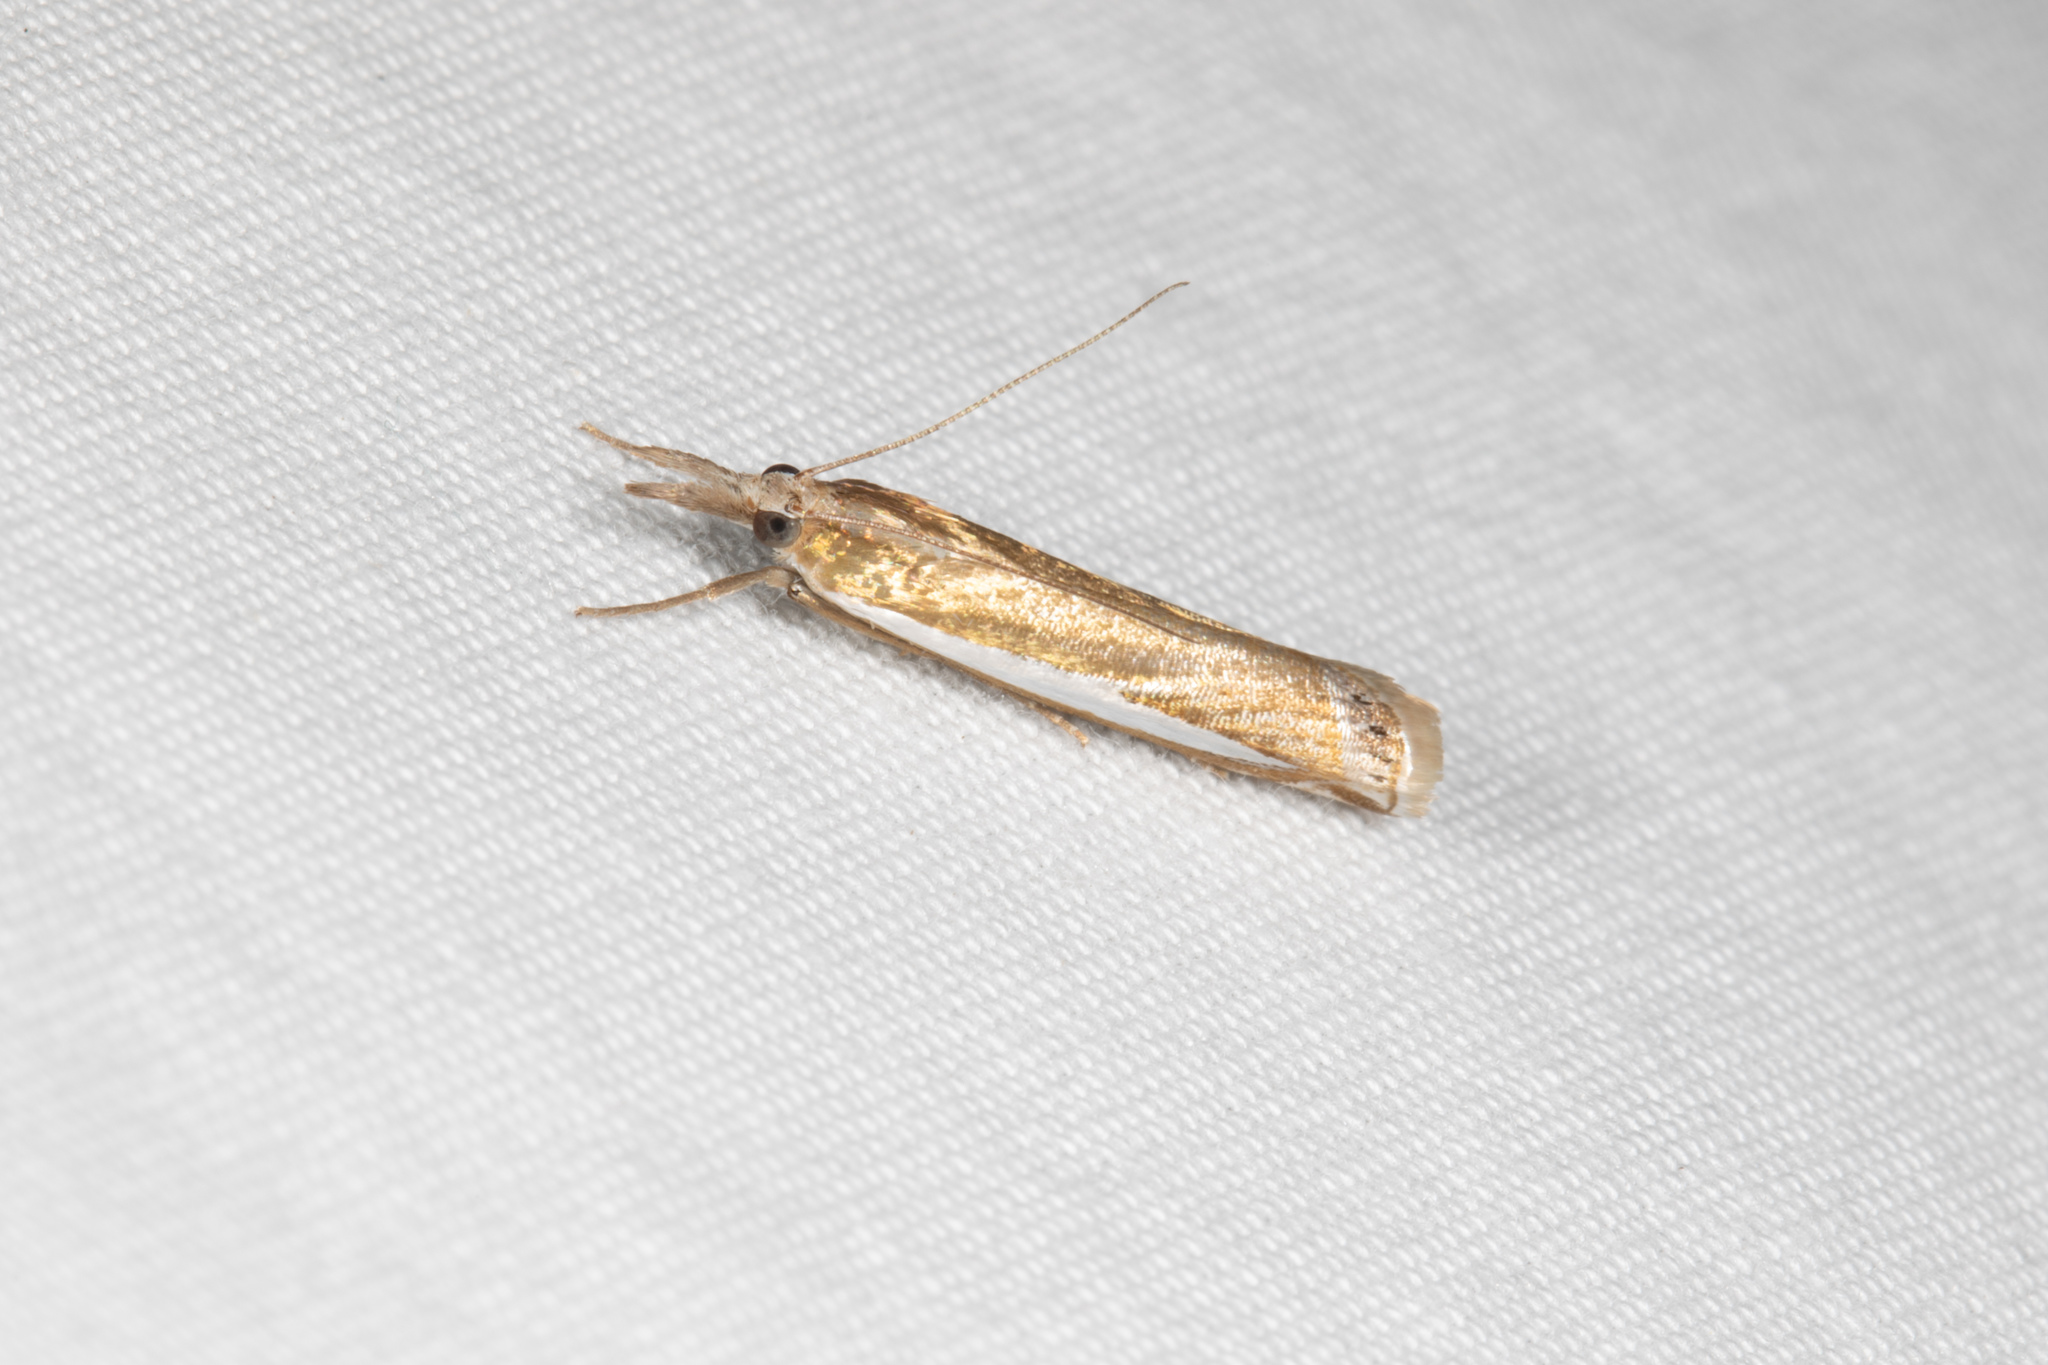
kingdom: Animalia
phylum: Arthropoda
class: Insecta
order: Lepidoptera
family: Crambidae
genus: Crambus
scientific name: Crambus praefectellus
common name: Common grass-veneer
